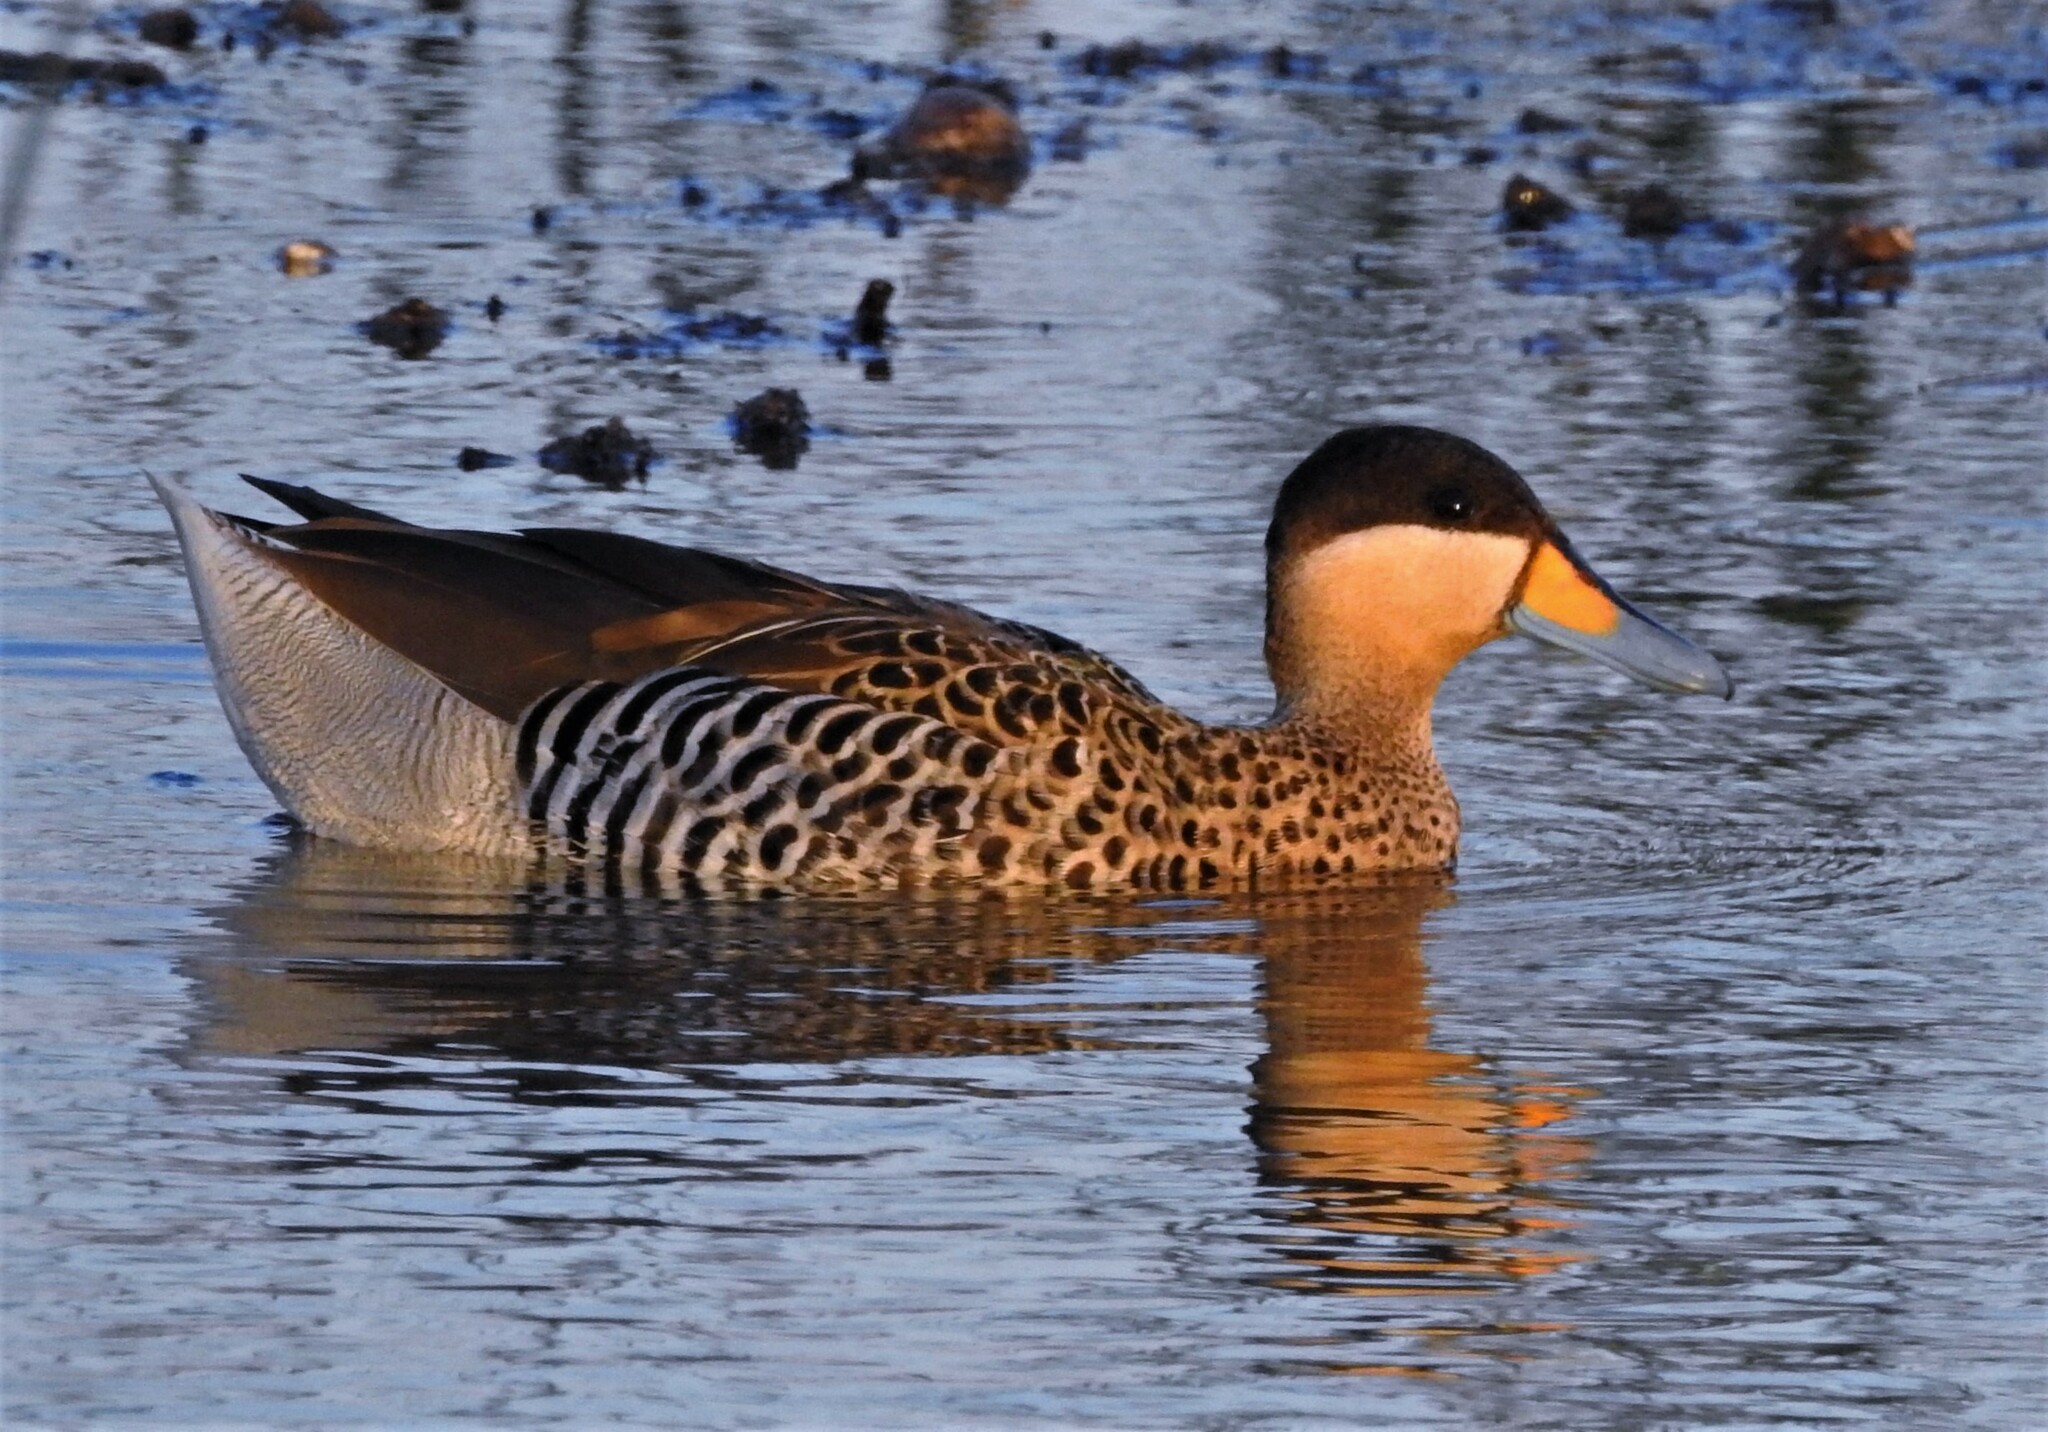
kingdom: Animalia
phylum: Chordata
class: Aves
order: Anseriformes
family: Anatidae
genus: Spatula
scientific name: Spatula versicolor
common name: Silver teal
